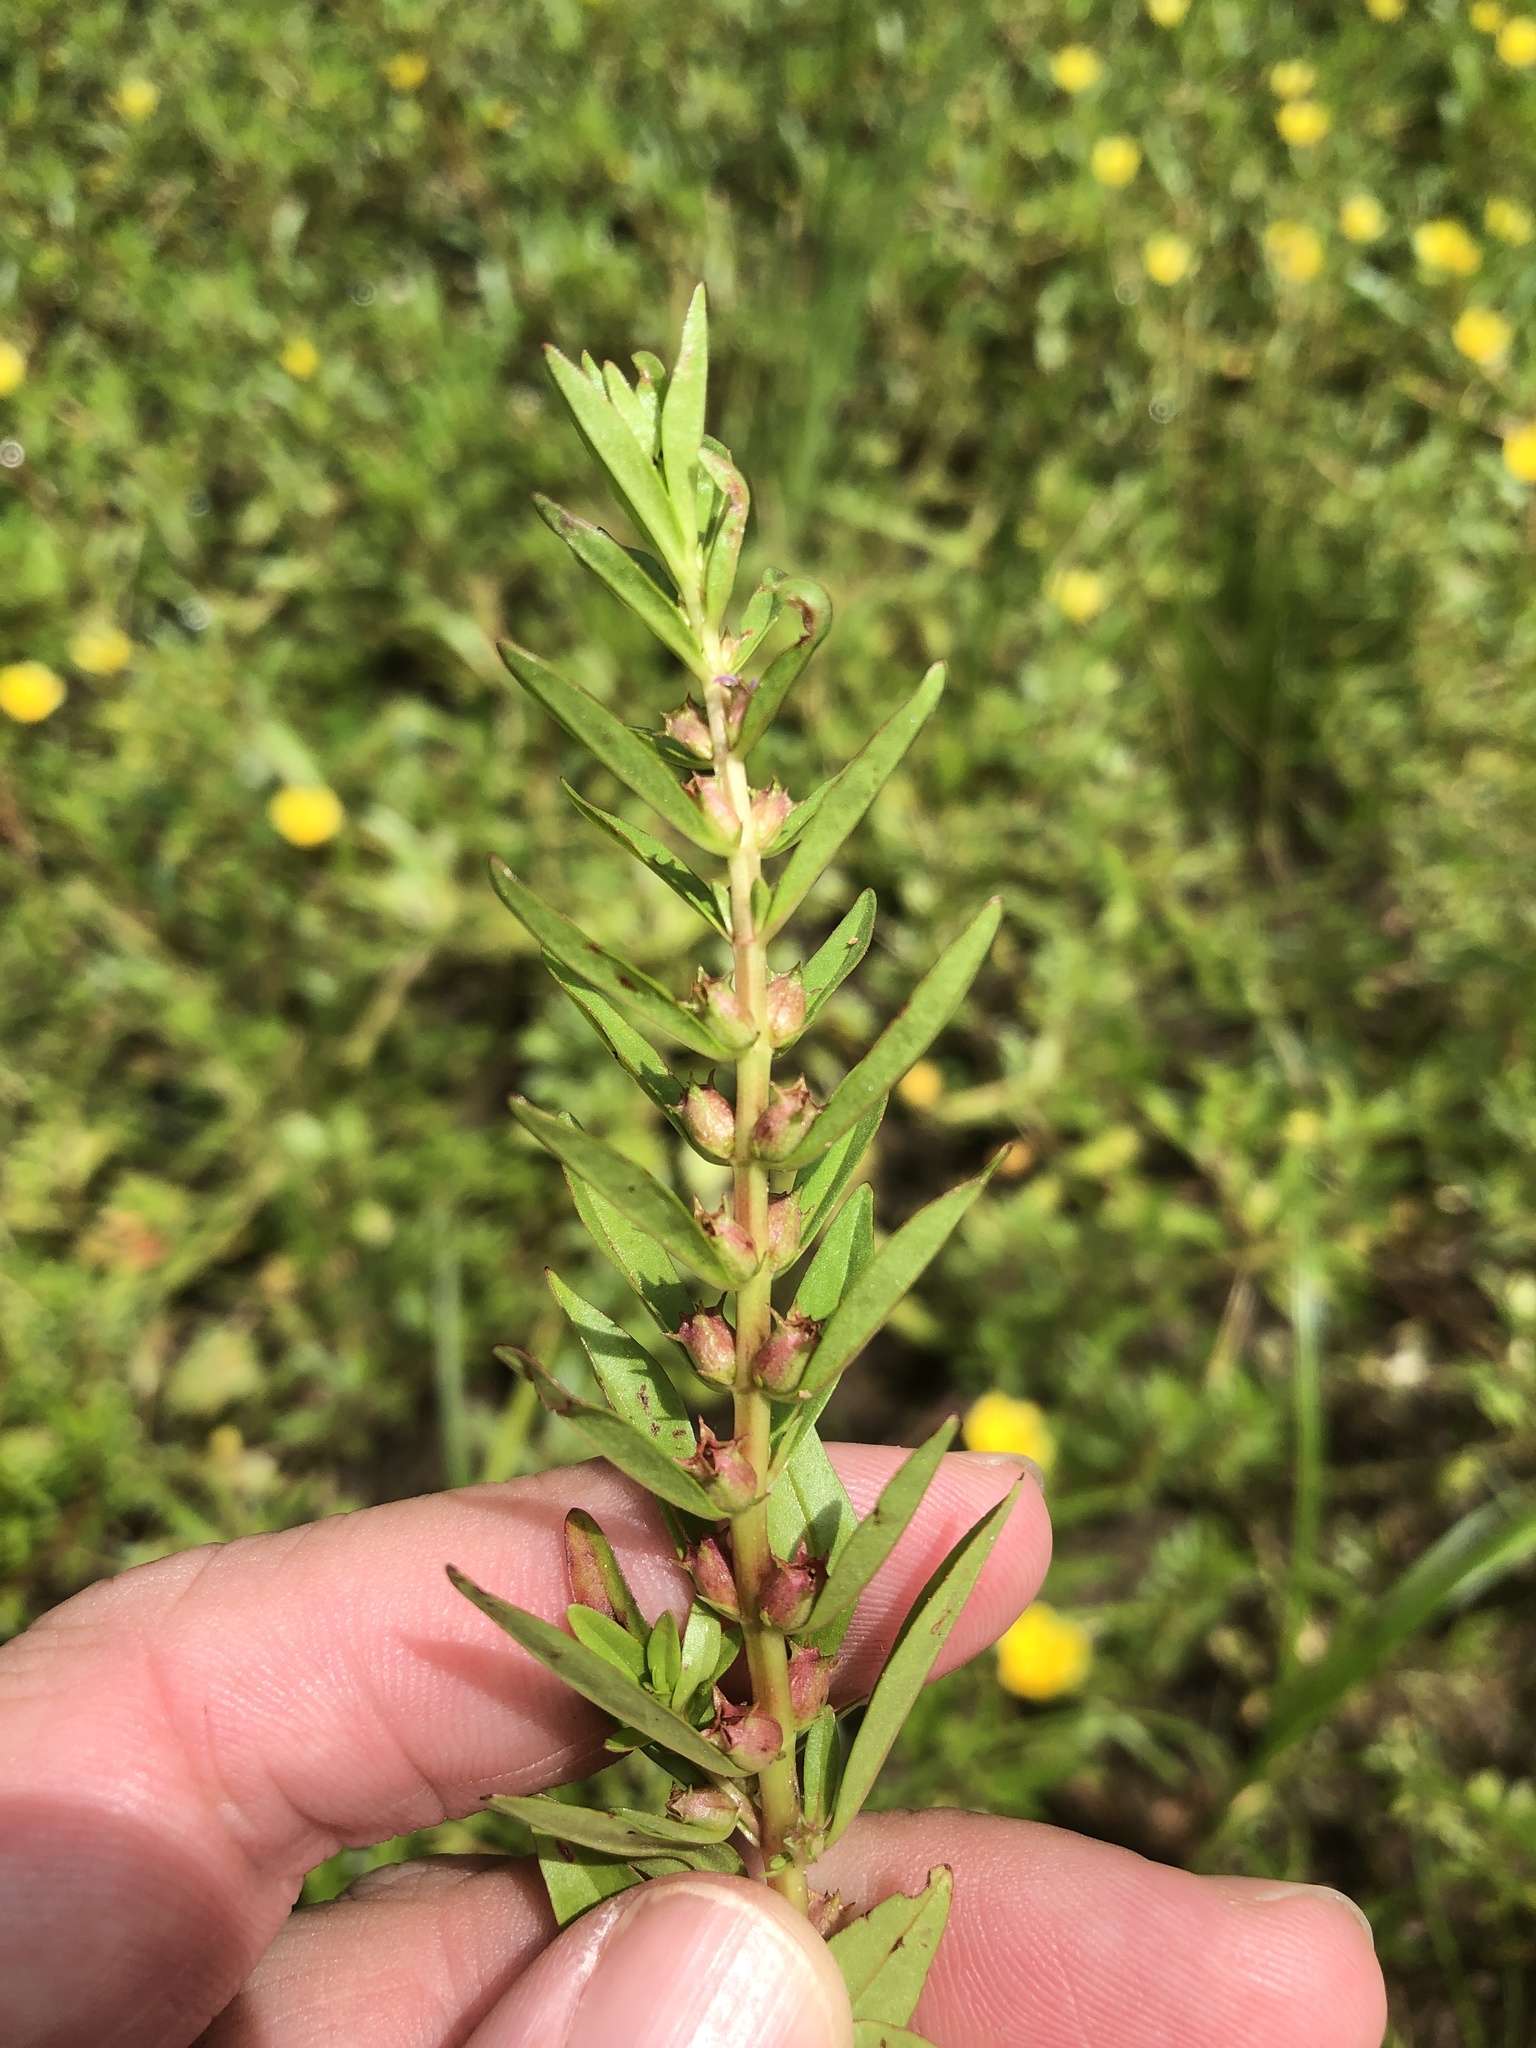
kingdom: Plantae
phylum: Tracheophyta
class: Magnoliopsida
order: Myrtales
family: Lythraceae
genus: Rotala
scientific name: Rotala ramosior
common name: Lowland rotala
